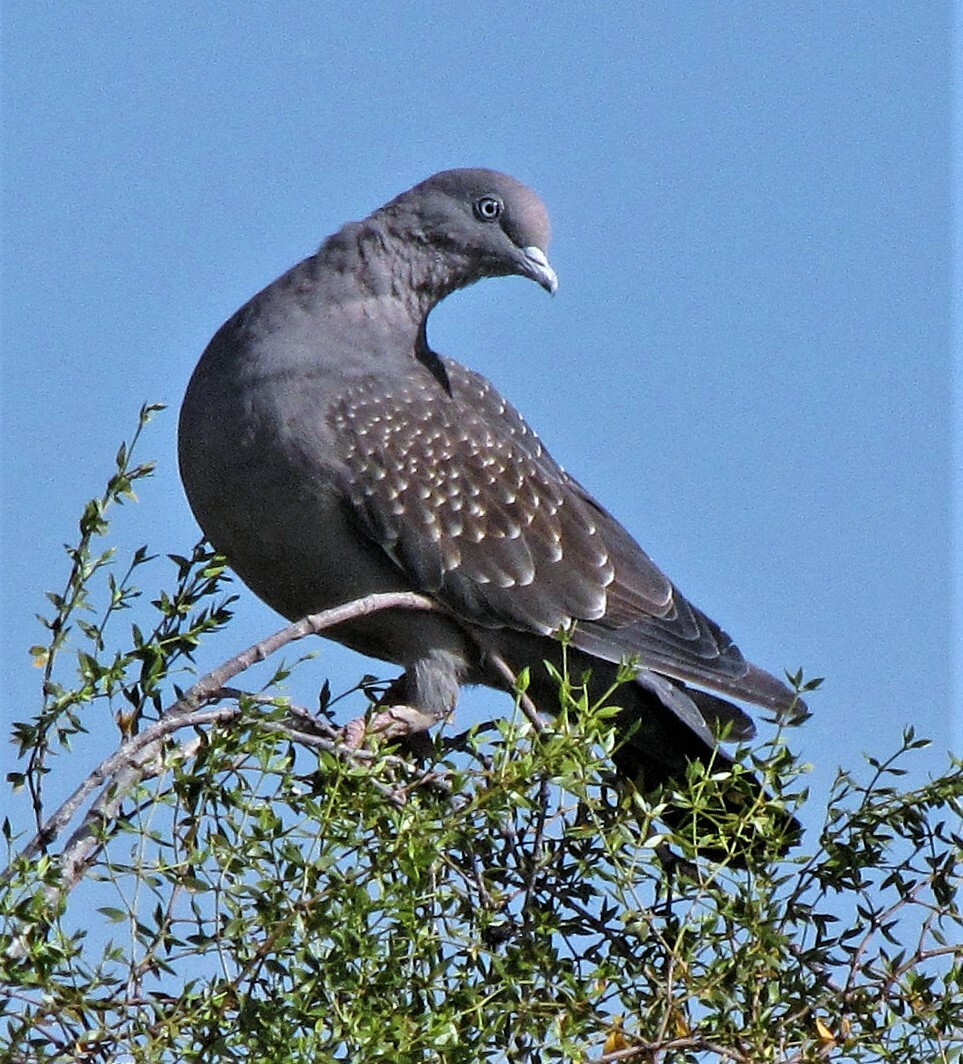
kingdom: Animalia
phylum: Chordata
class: Aves
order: Columbiformes
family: Columbidae
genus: Patagioenas
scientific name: Patagioenas maculosa
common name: Spot-winged pigeon
